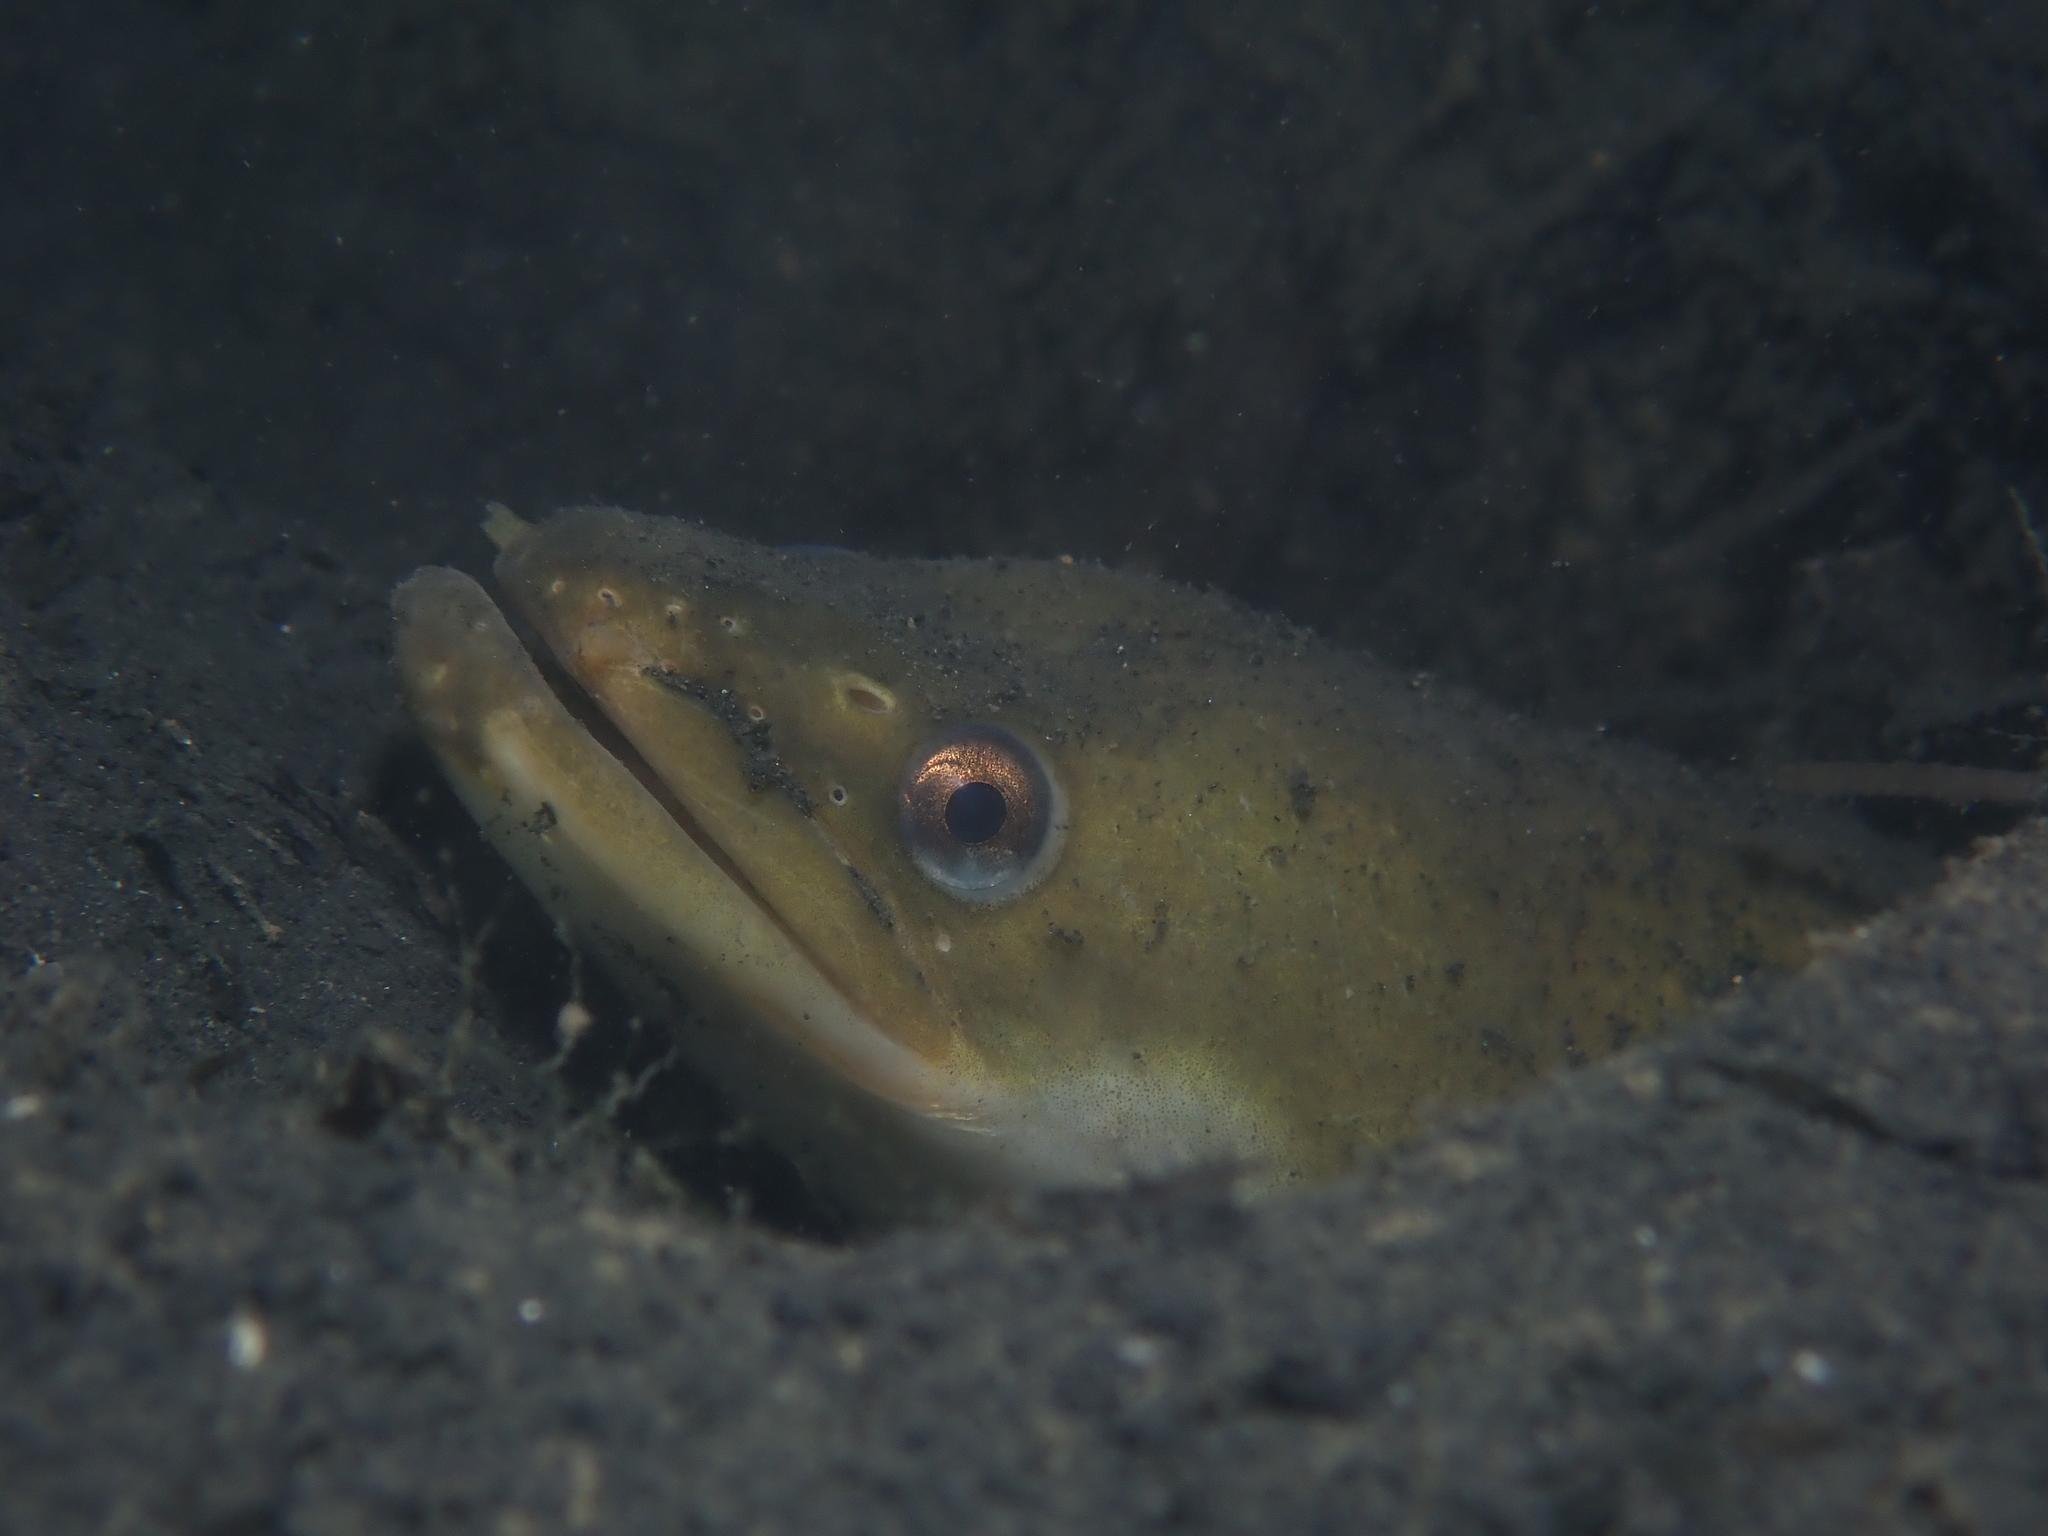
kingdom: Animalia
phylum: Chordata
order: Anguilliformes
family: Anguillidae
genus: Anguilla
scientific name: Anguilla anguilla
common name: European eel
